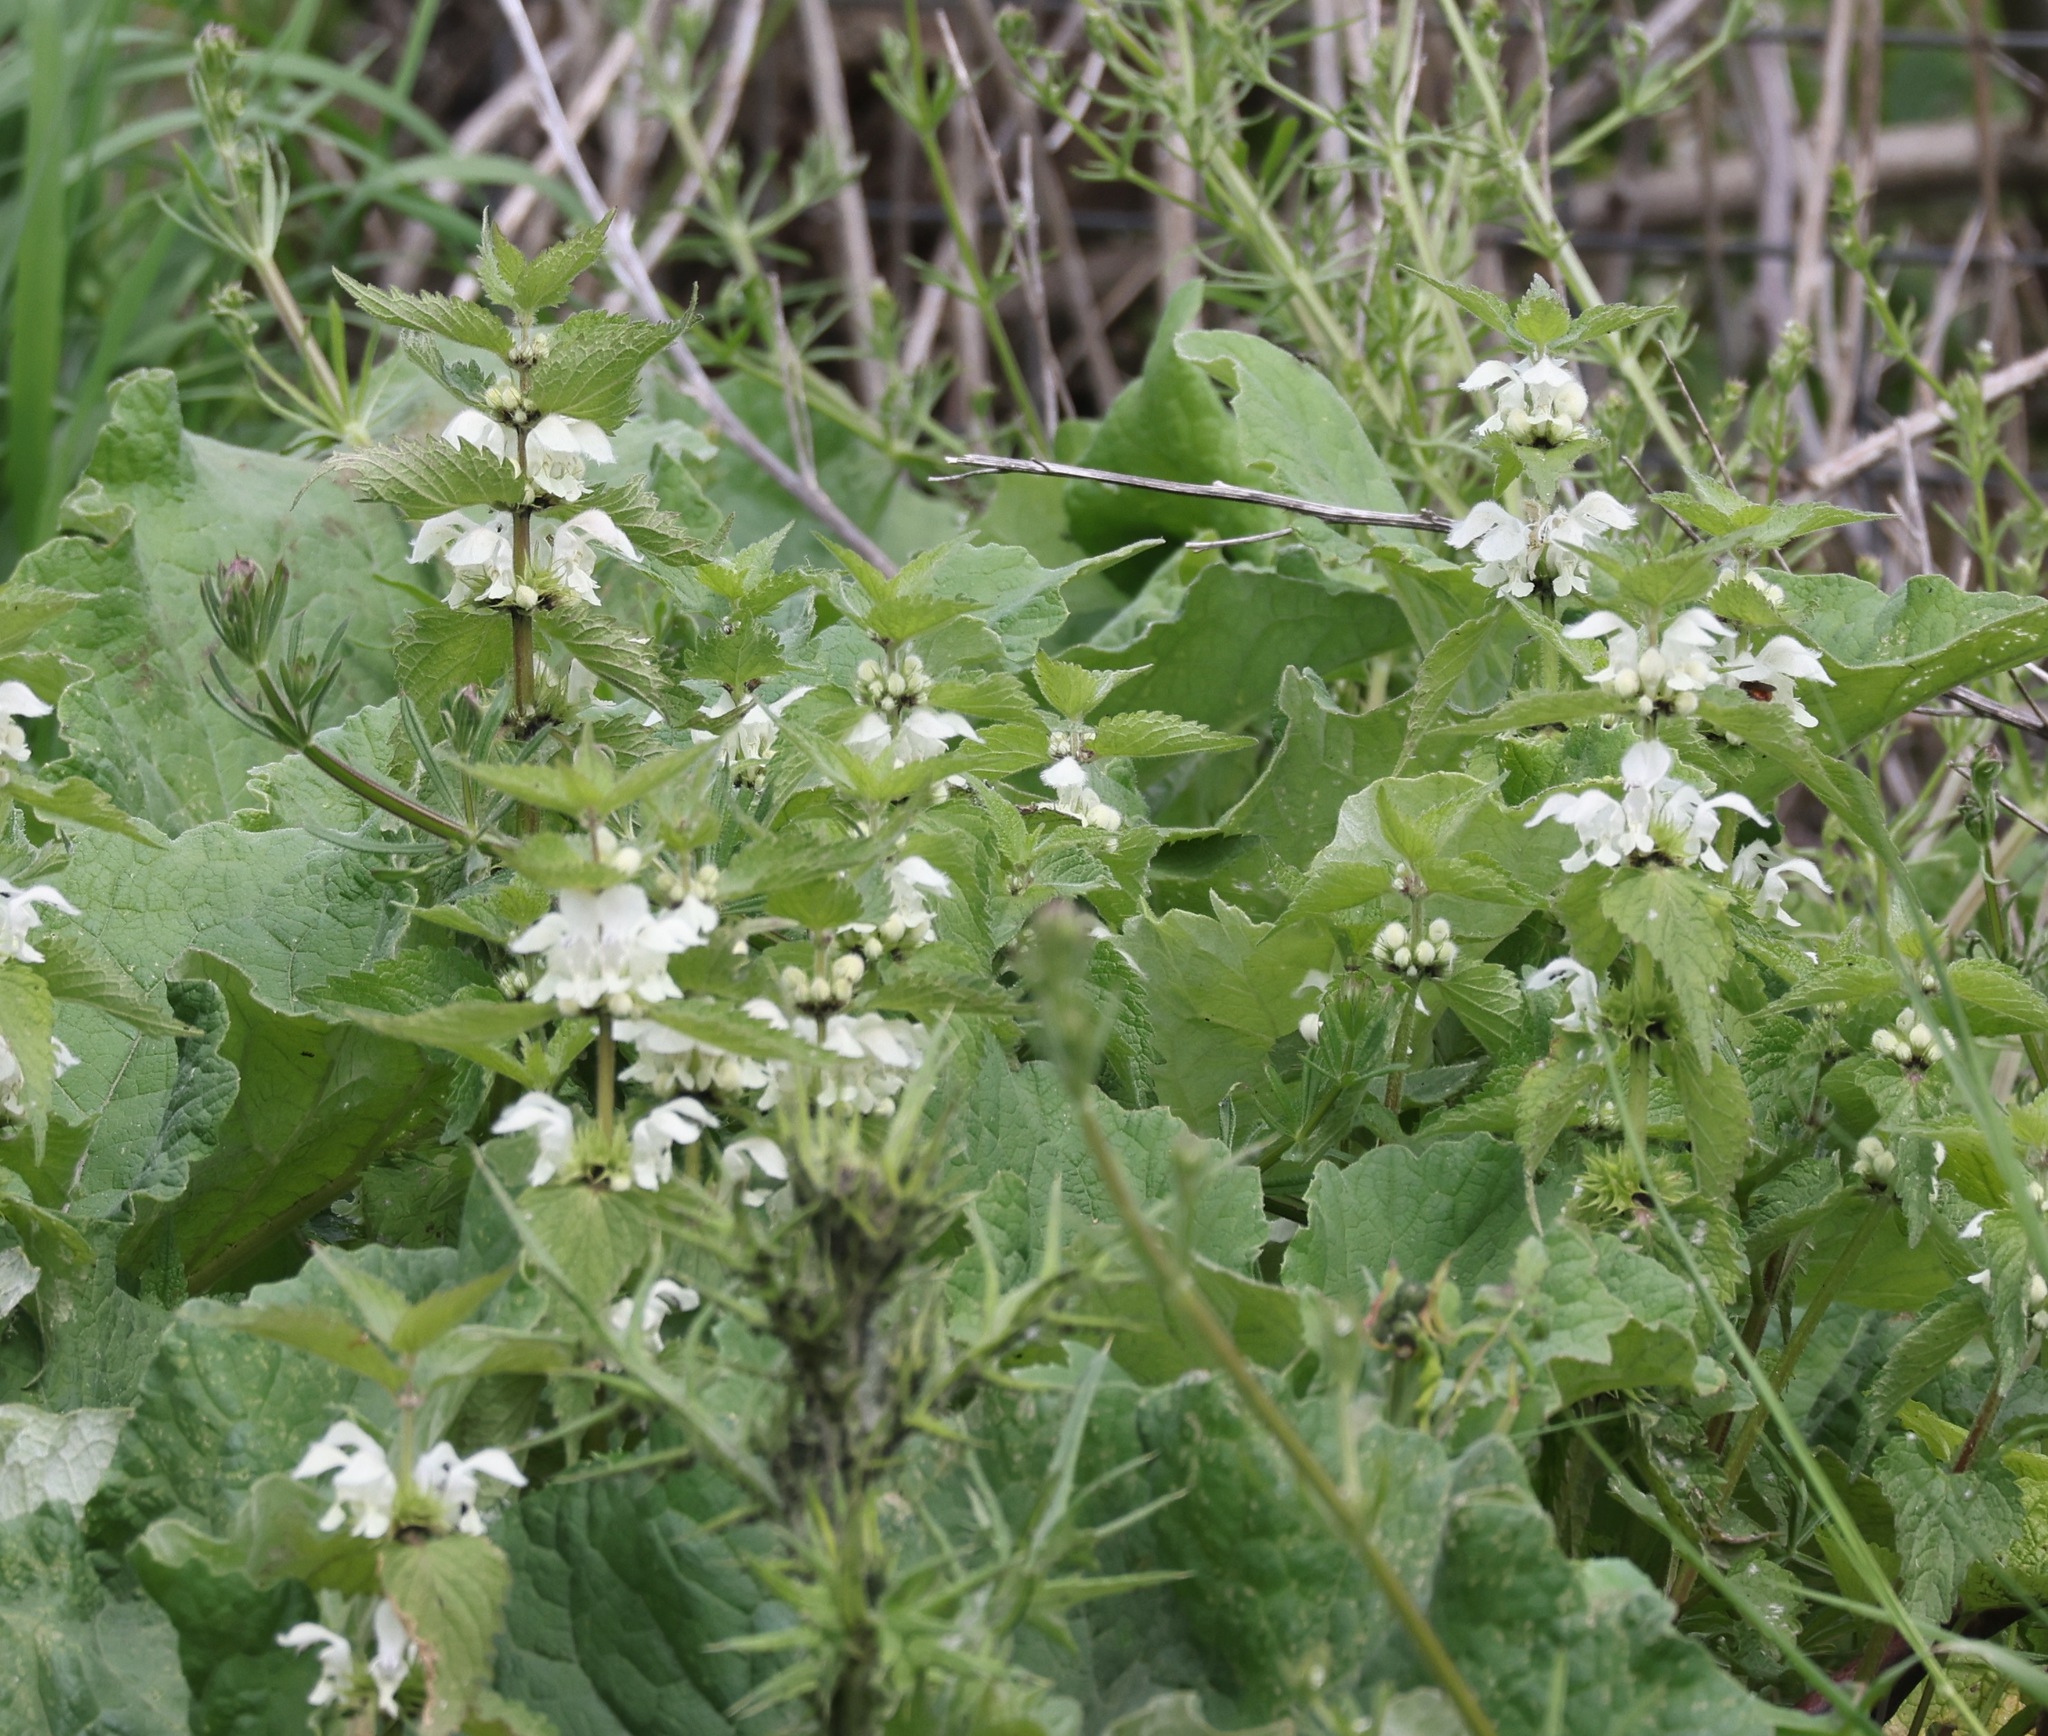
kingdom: Plantae
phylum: Tracheophyta
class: Magnoliopsida
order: Lamiales
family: Lamiaceae
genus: Lamium
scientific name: Lamium album
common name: White dead-nettle
